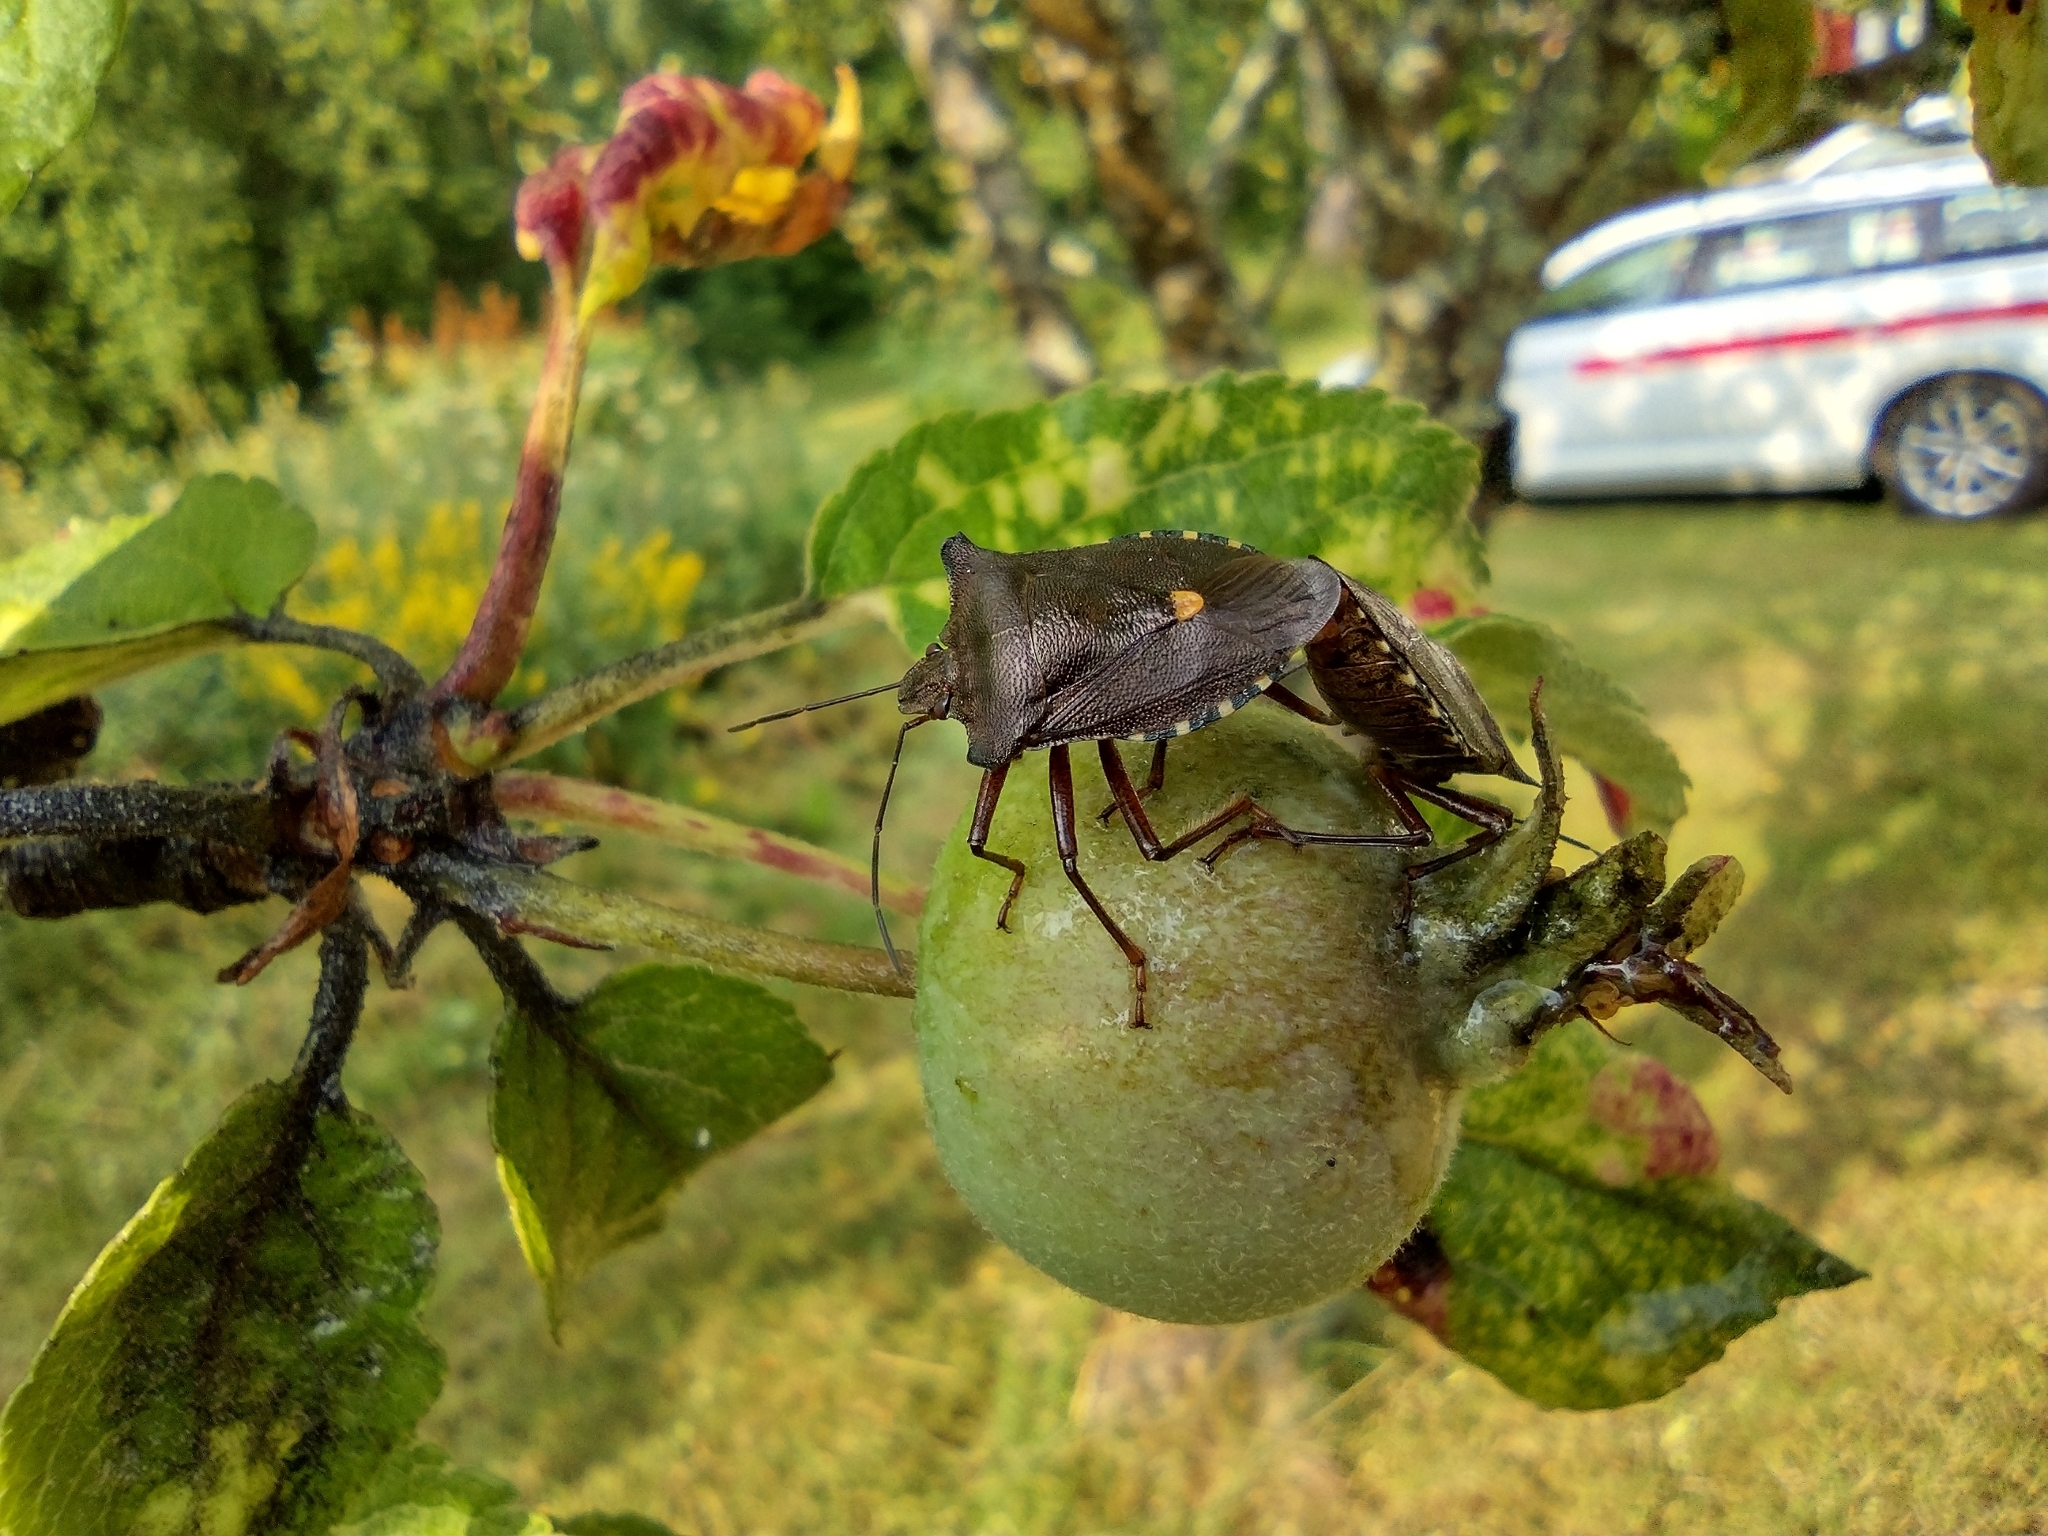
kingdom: Animalia
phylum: Arthropoda
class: Insecta
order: Hemiptera
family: Pentatomidae
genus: Pentatoma
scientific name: Pentatoma rufipes
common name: Forest bug
